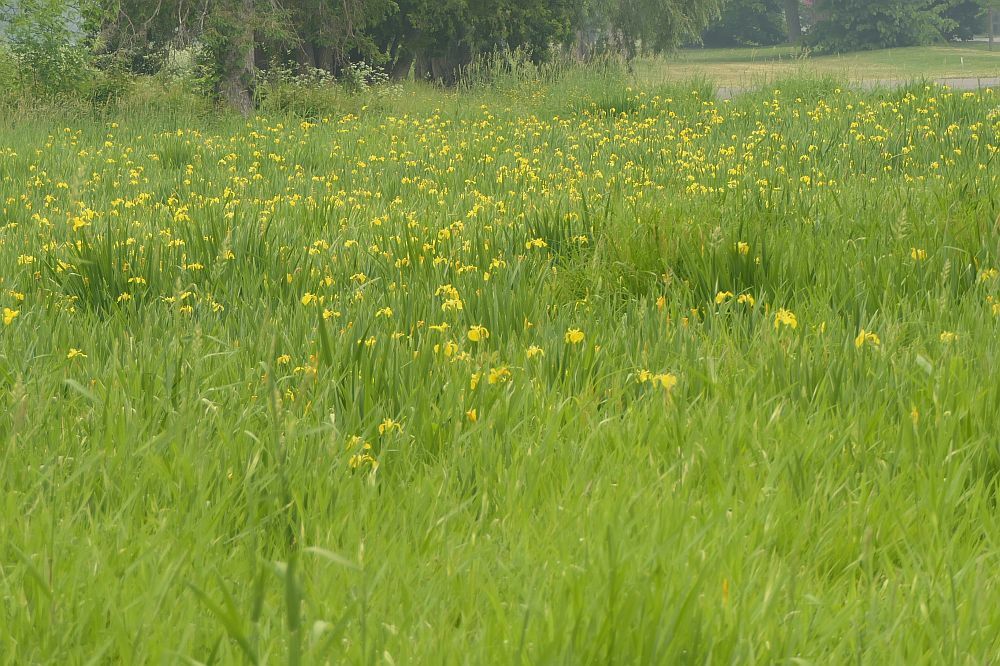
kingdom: Plantae
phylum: Tracheophyta
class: Liliopsida
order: Asparagales
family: Iridaceae
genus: Iris
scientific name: Iris pseudacorus
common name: Yellow flag
